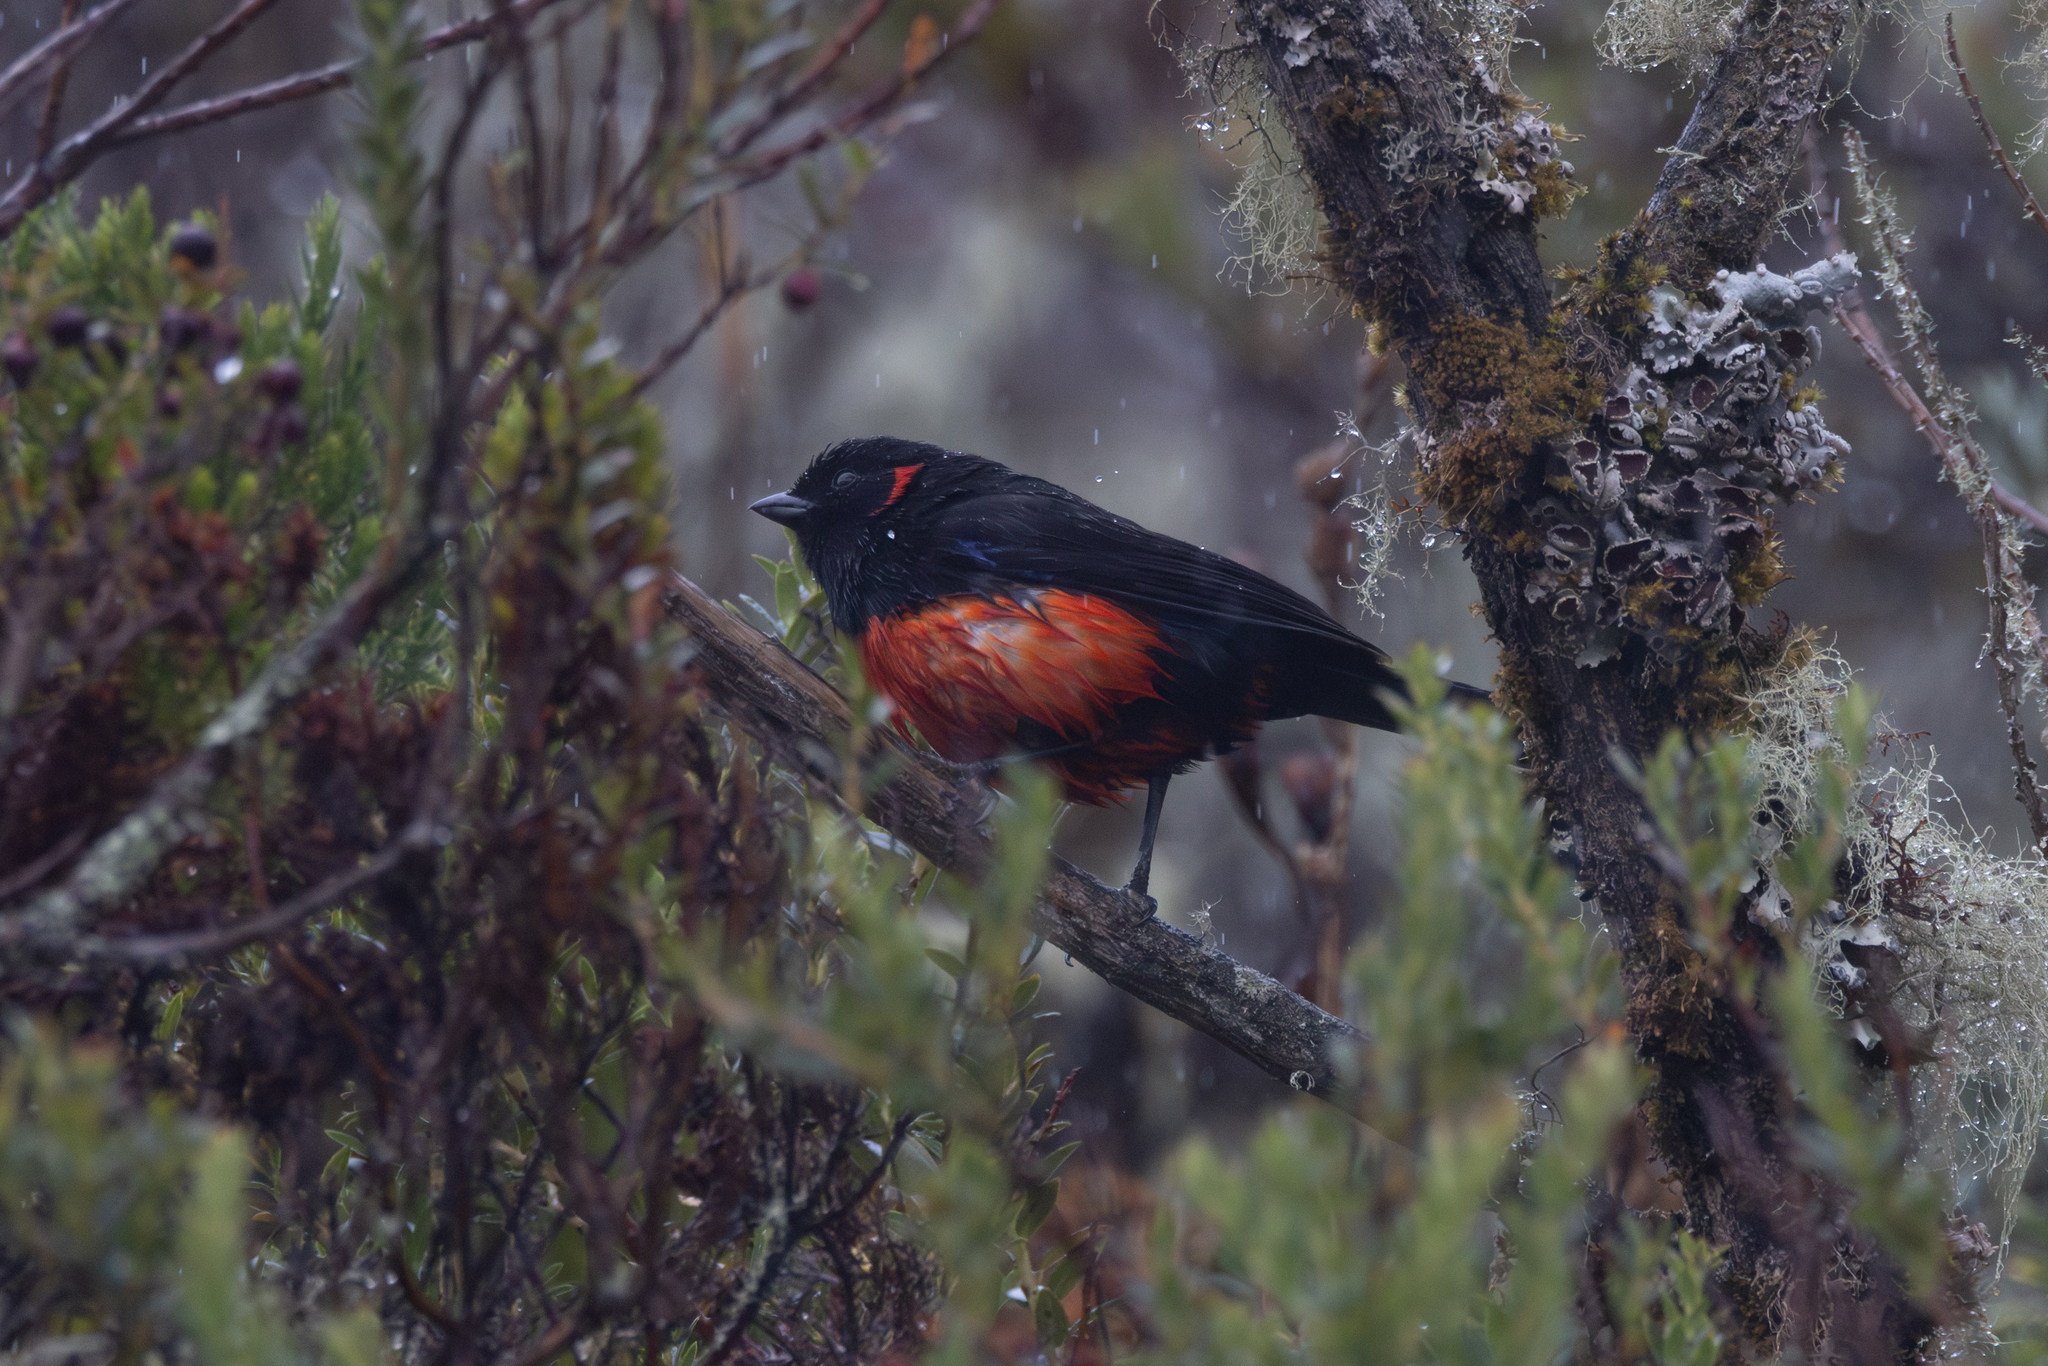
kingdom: Animalia
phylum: Chordata
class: Aves
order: Passeriformes
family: Thraupidae
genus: Anisognathus
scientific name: Anisognathus igniventris
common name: Scarlet-bellied mountain tanager
